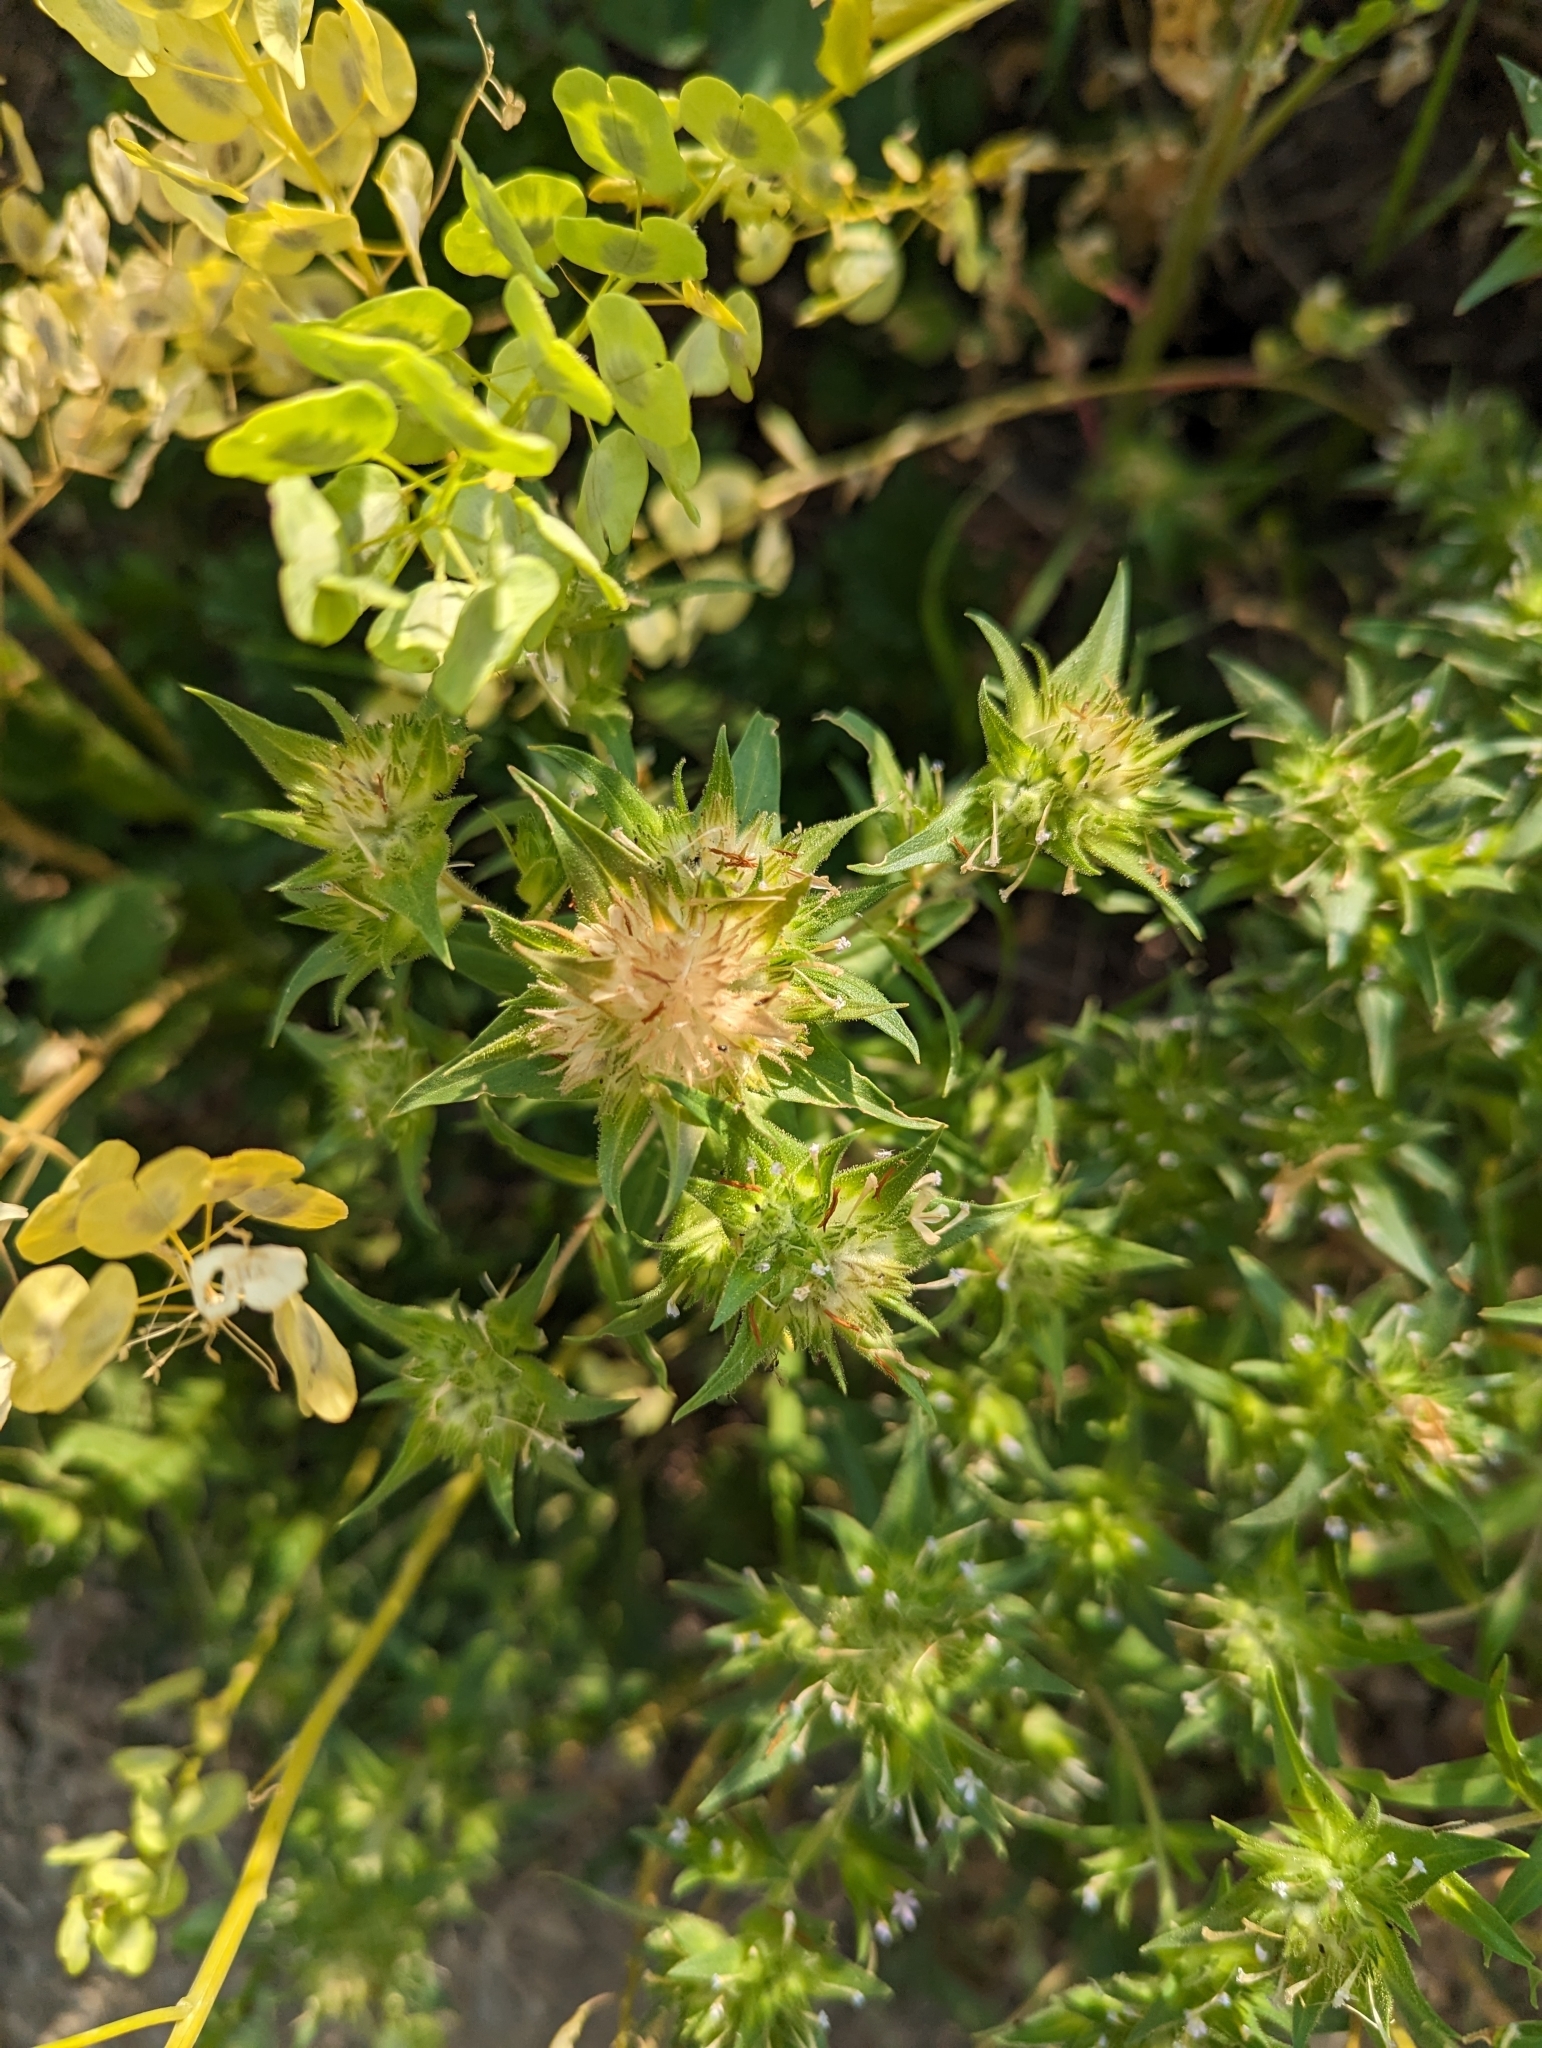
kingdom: Plantae
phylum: Tracheophyta
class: Magnoliopsida
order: Ericales
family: Polemoniaceae
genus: Collomia
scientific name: Collomia linearis
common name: Tiny trumpet
